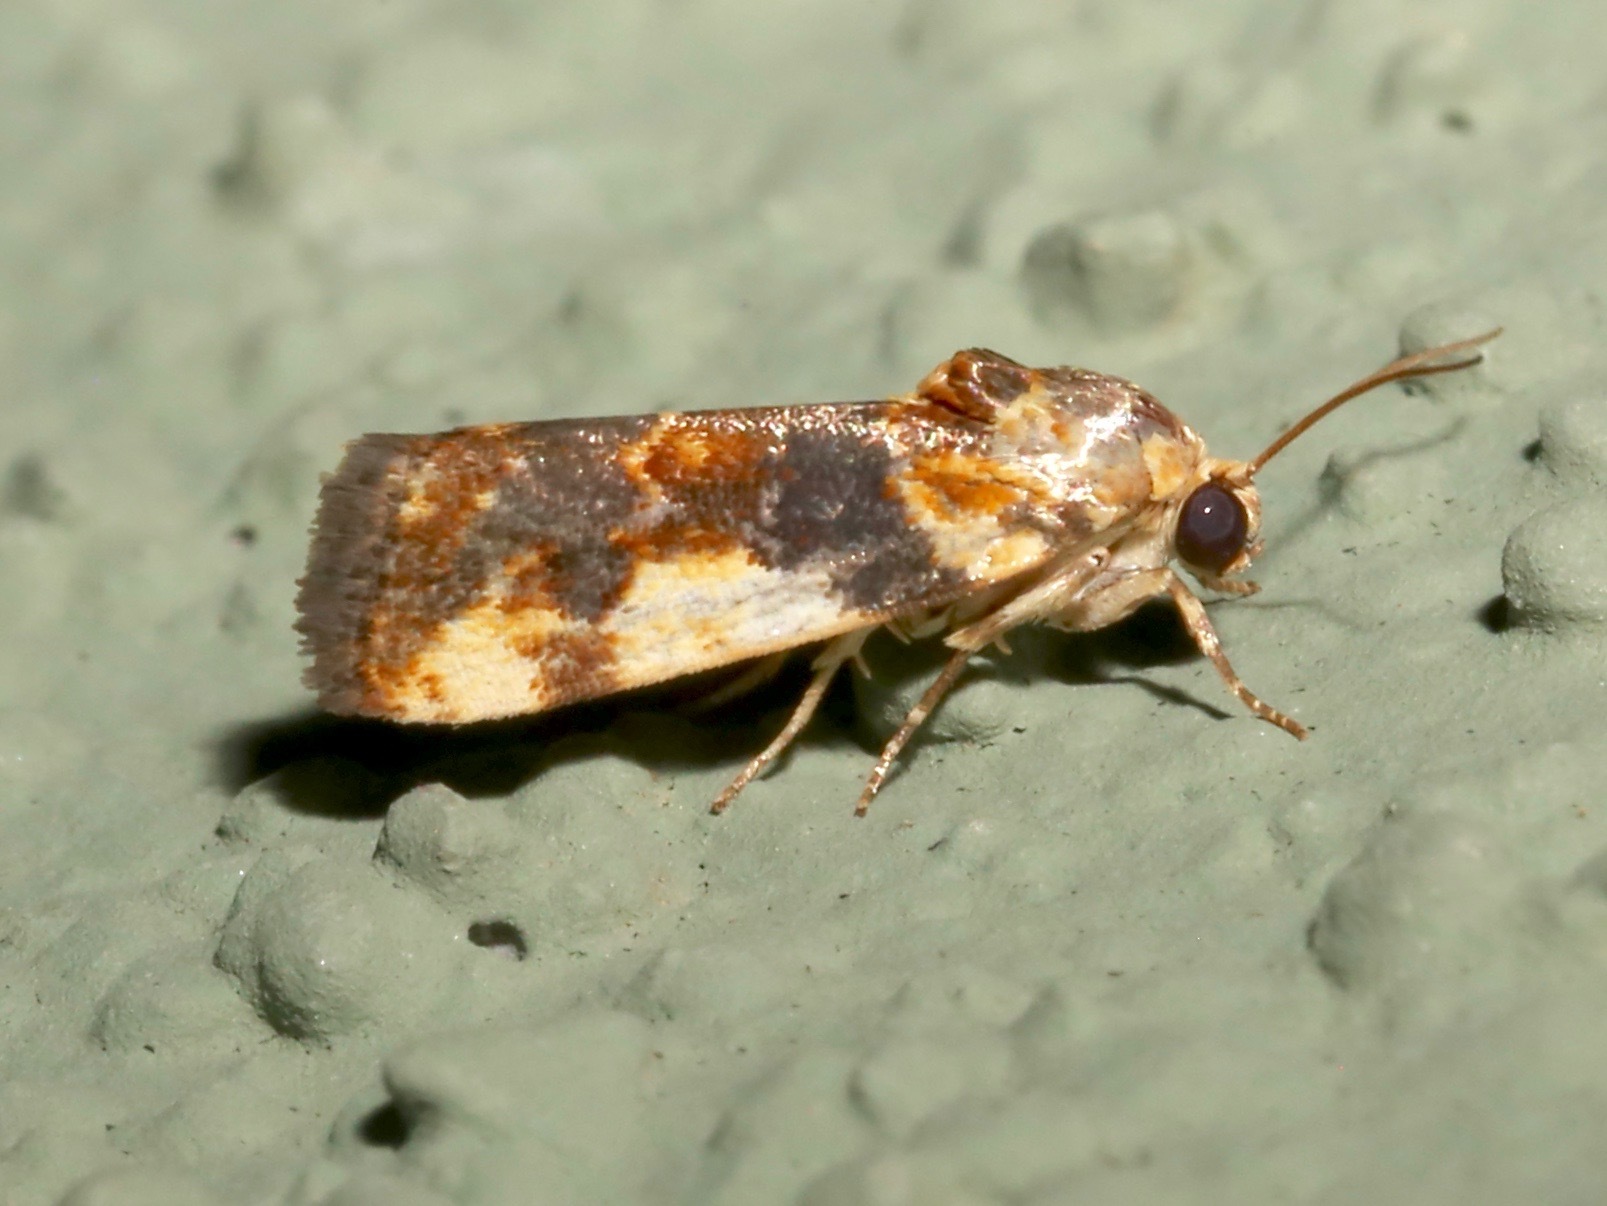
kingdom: Animalia
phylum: Arthropoda
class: Insecta
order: Lepidoptera
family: Noctuidae
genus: Acontia
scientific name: Acontia obatra
